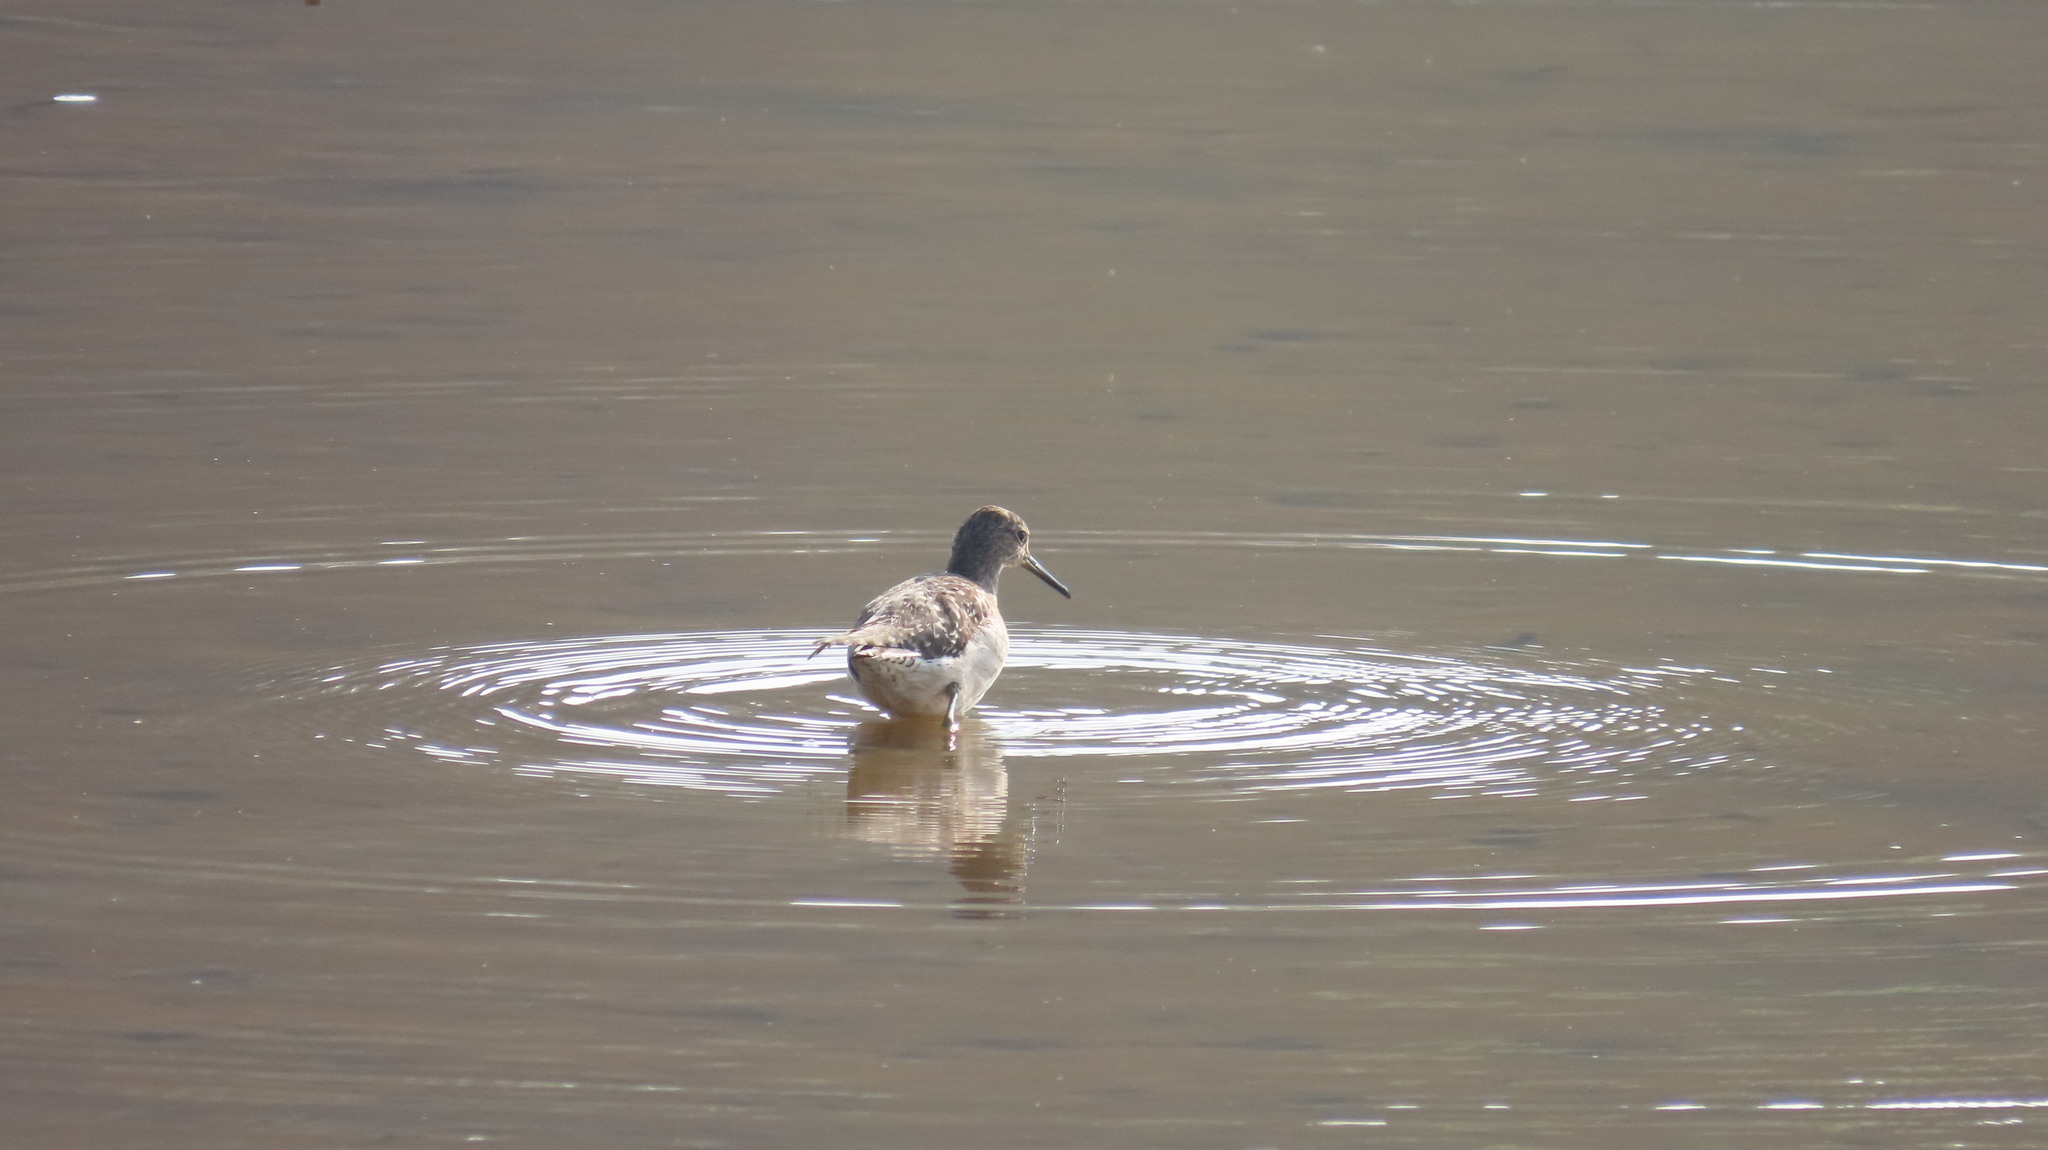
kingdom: Animalia
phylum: Chordata
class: Aves
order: Charadriiformes
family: Scolopacidae
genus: Tringa
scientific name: Tringa glareola
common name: Wood sandpiper
